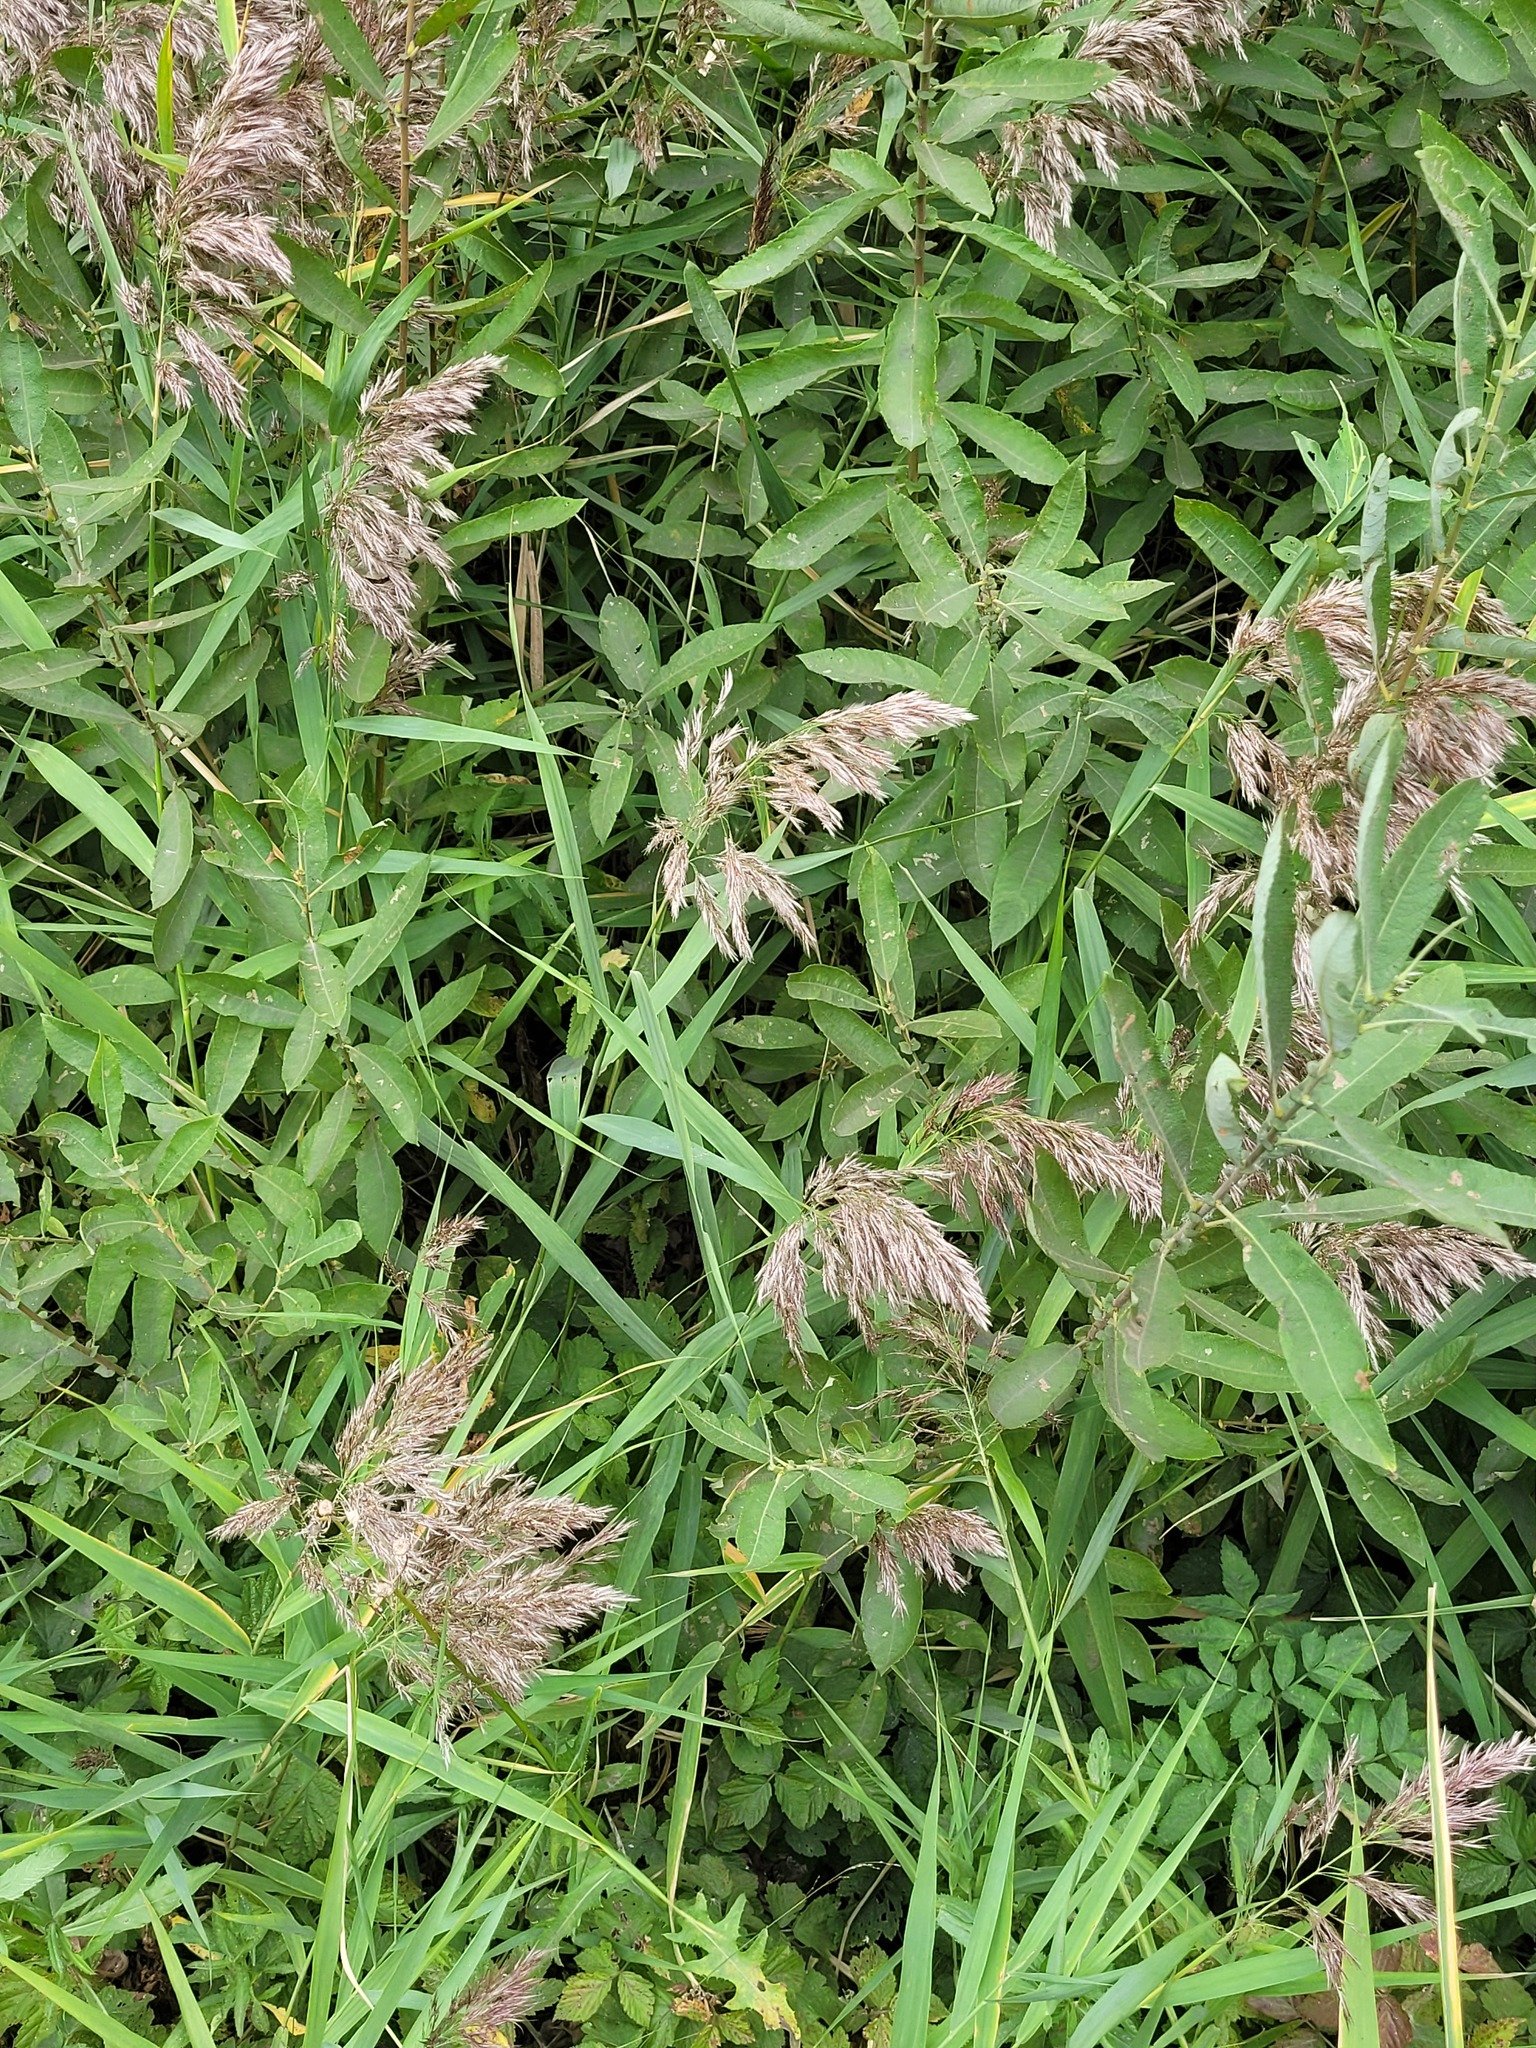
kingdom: Plantae
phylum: Tracheophyta
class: Liliopsida
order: Poales
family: Poaceae
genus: Phragmites
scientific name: Phragmites australis
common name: Common reed
